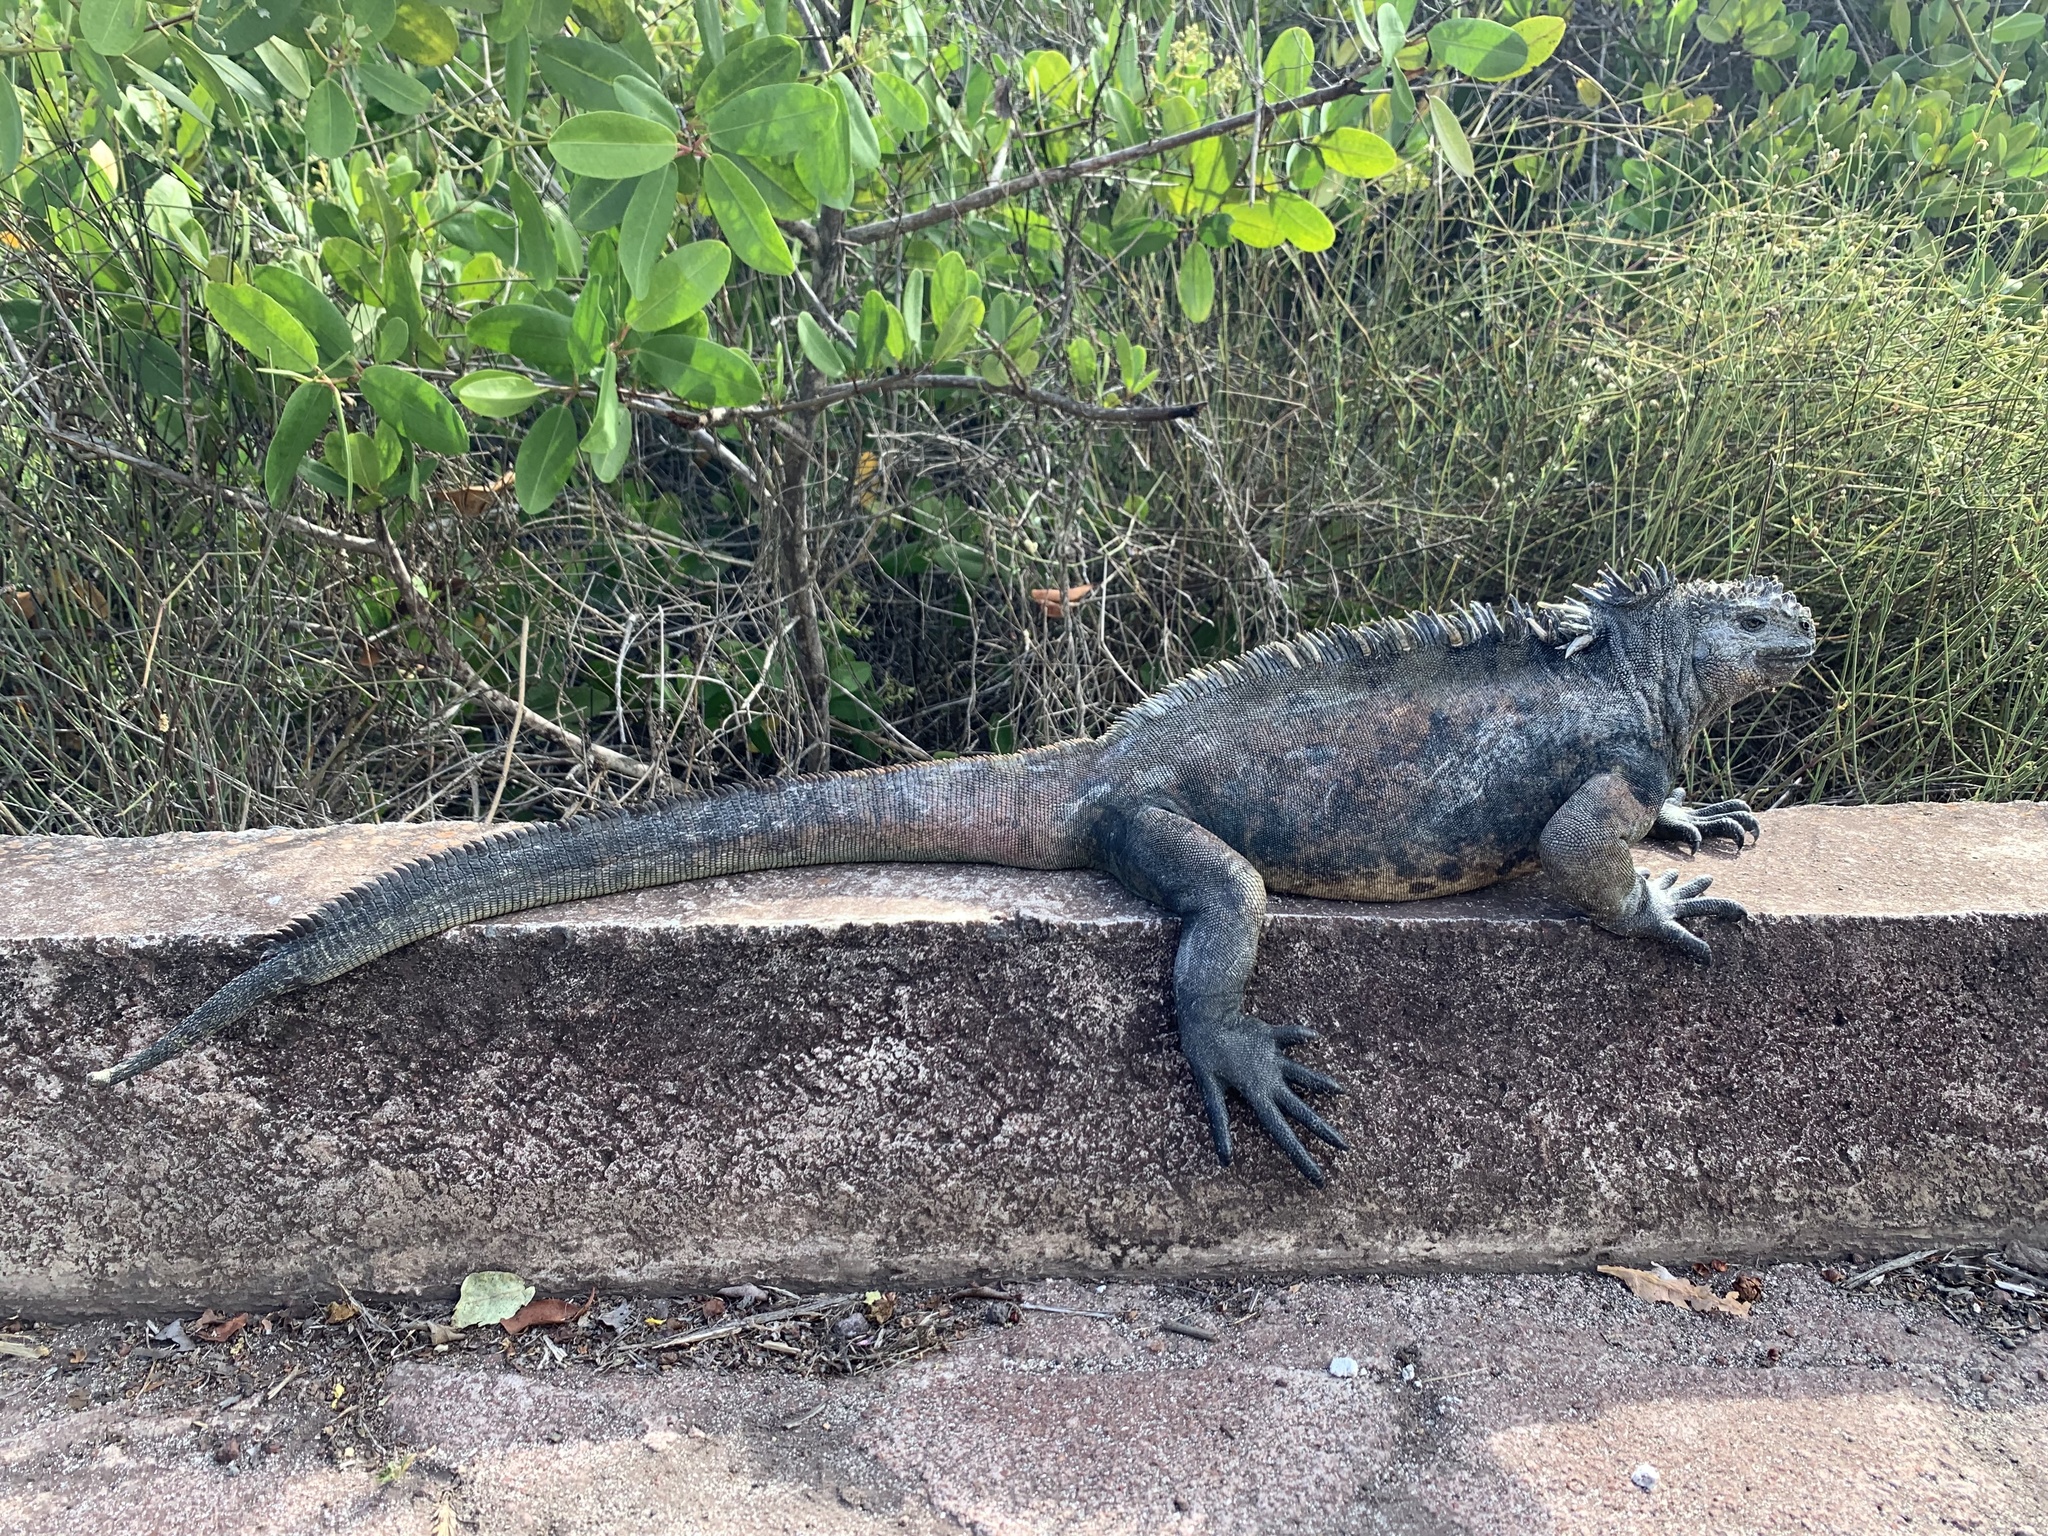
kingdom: Animalia
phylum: Chordata
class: Squamata
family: Iguanidae
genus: Amblyrhynchus
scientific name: Amblyrhynchus cristatus
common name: Marine iguana
